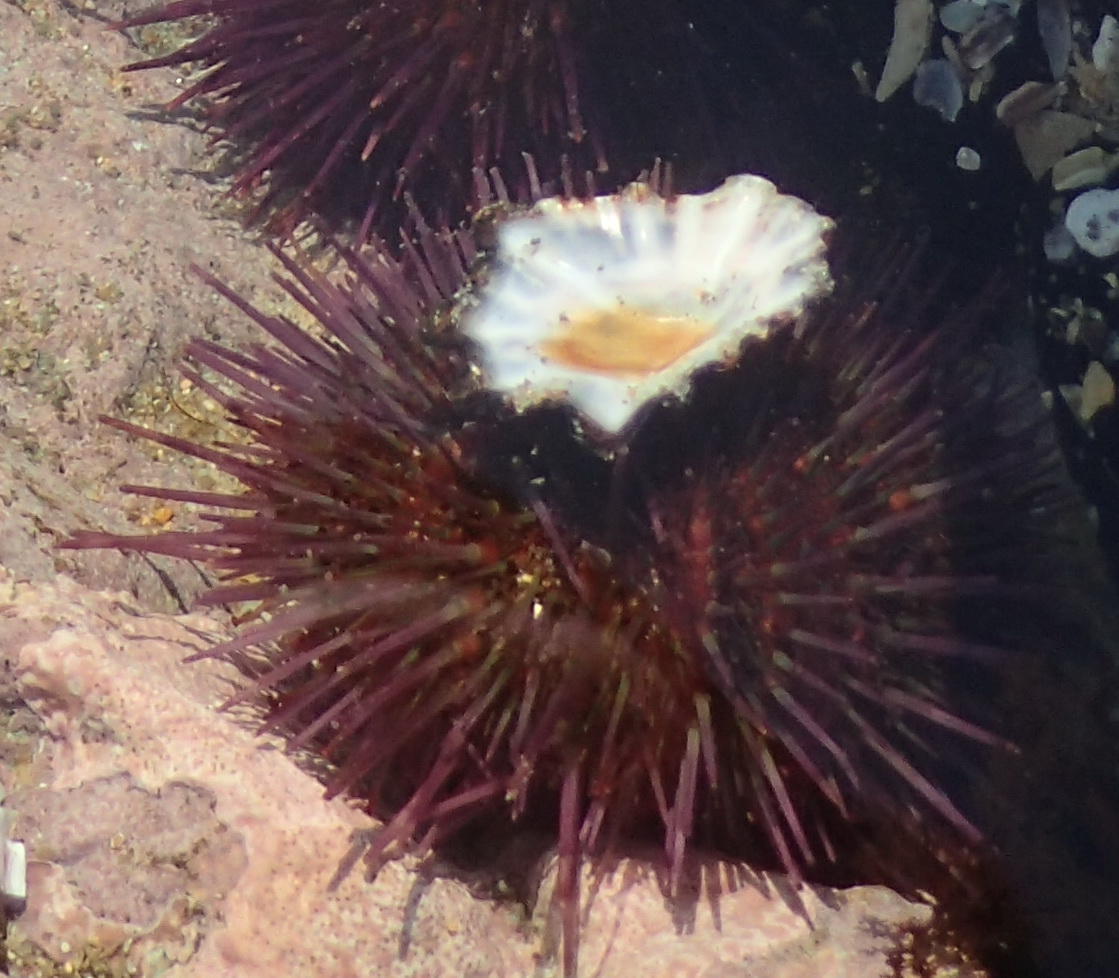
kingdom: Animalia
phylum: Mollusca
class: Gastropoda
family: Patellidae
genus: Cymbula
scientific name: Cymbula oculus
